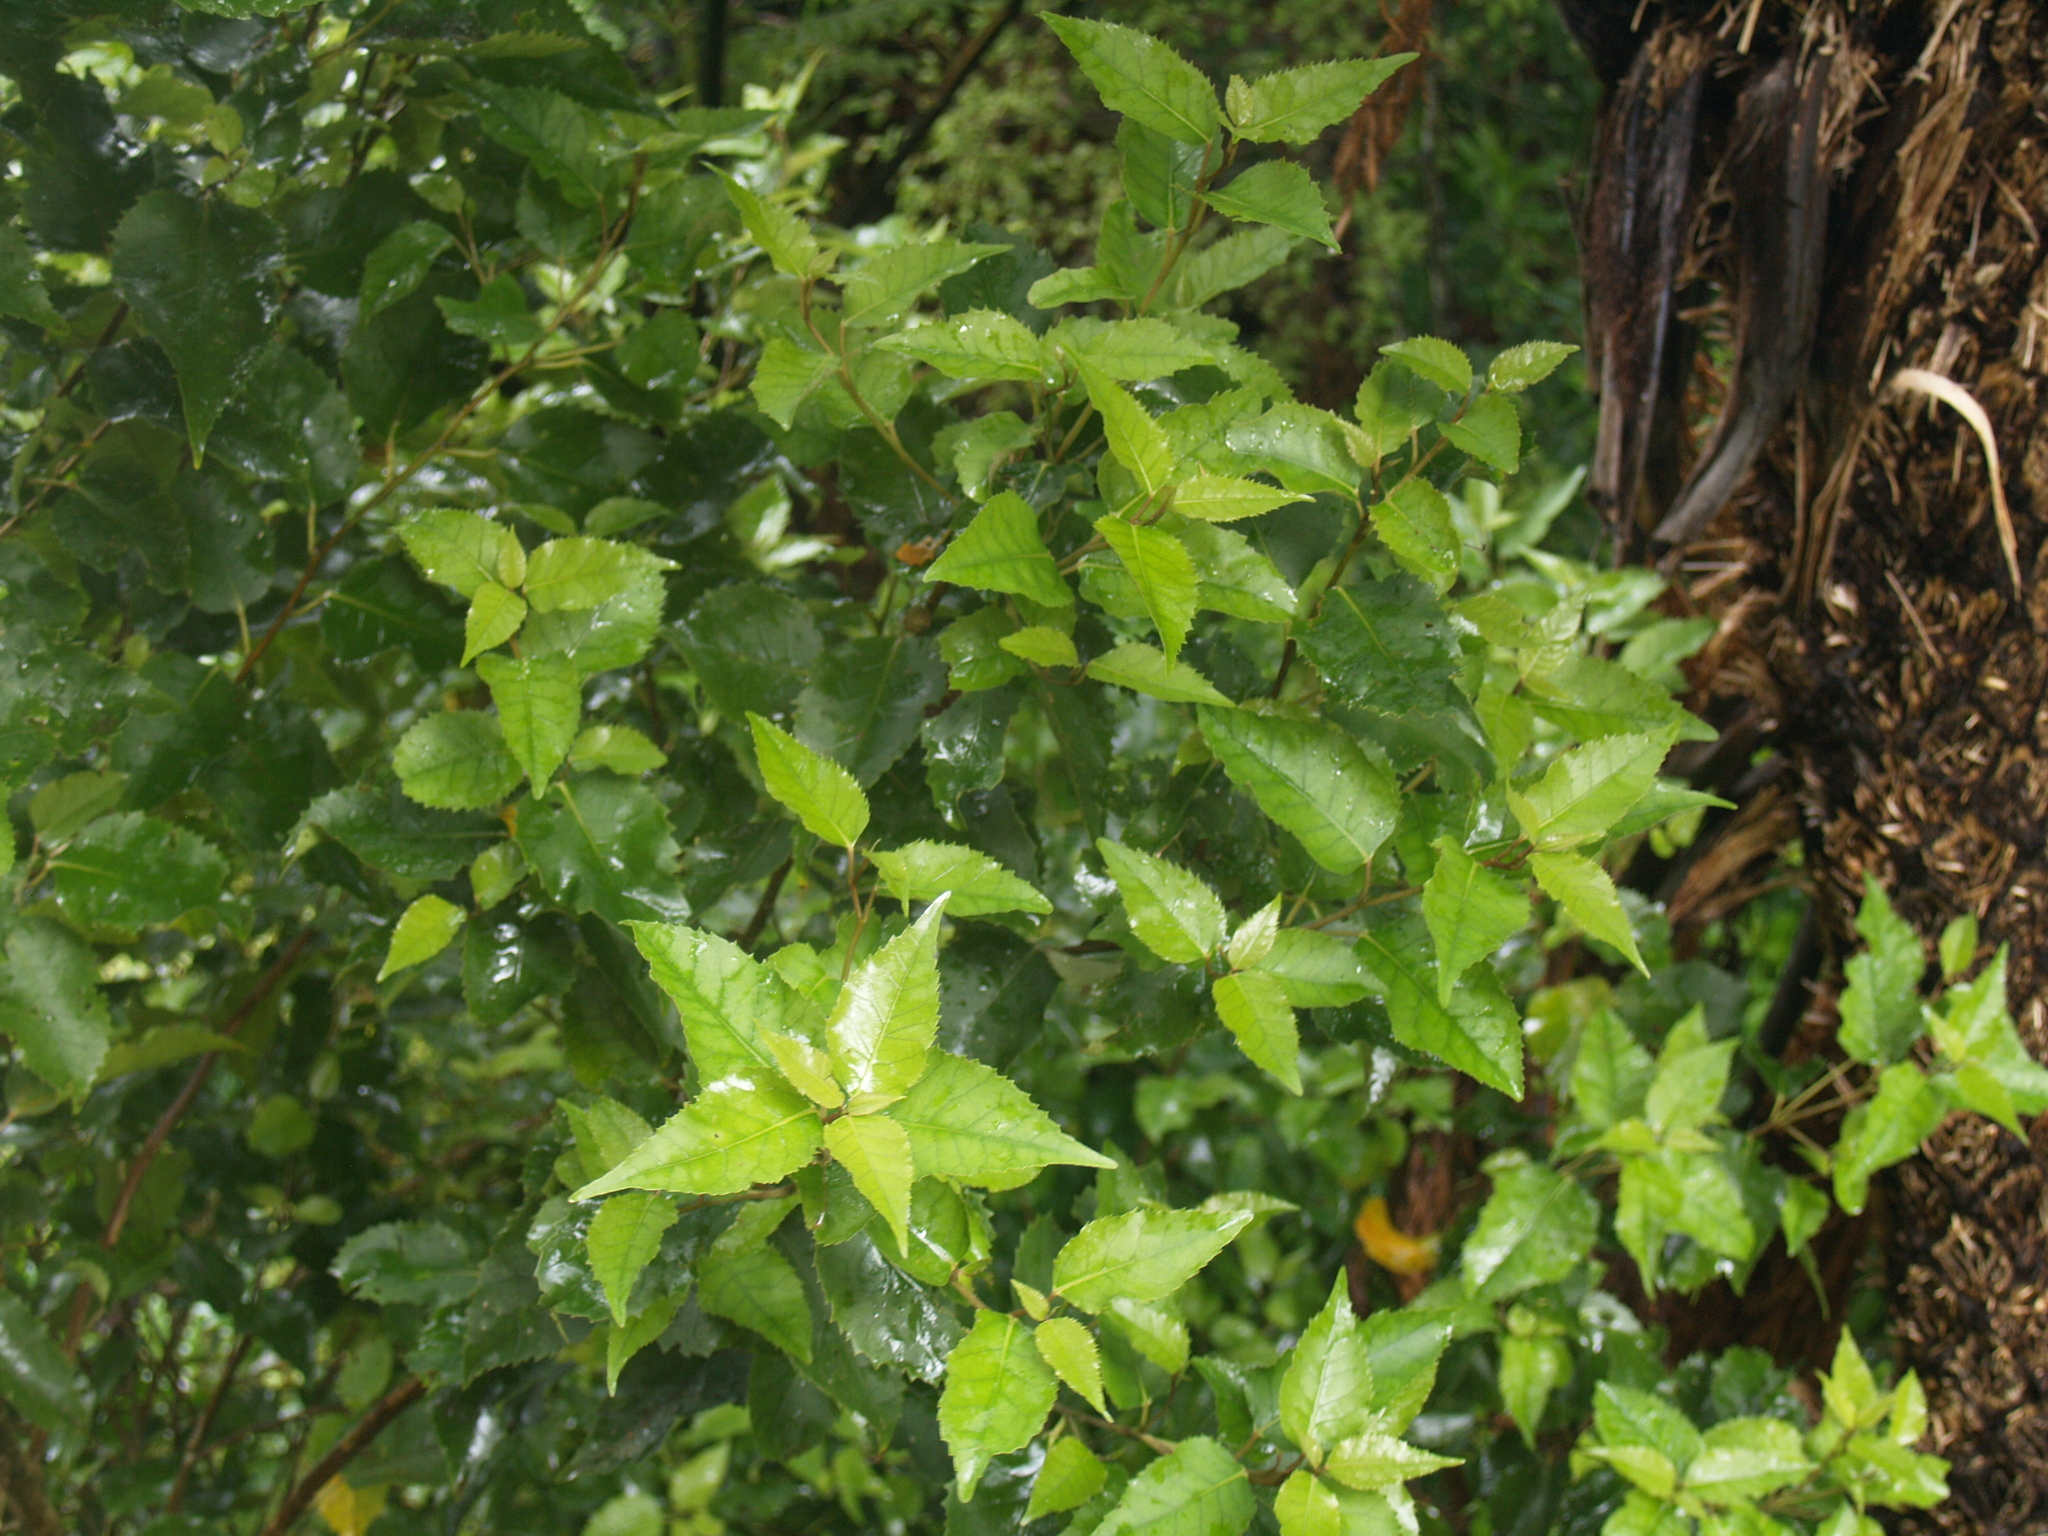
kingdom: Plantae
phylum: Tracheophyta
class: Magnoliopsida
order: Malvales
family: Malvaceae
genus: Hoheria
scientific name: Hoheria populnea
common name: Lacebark
